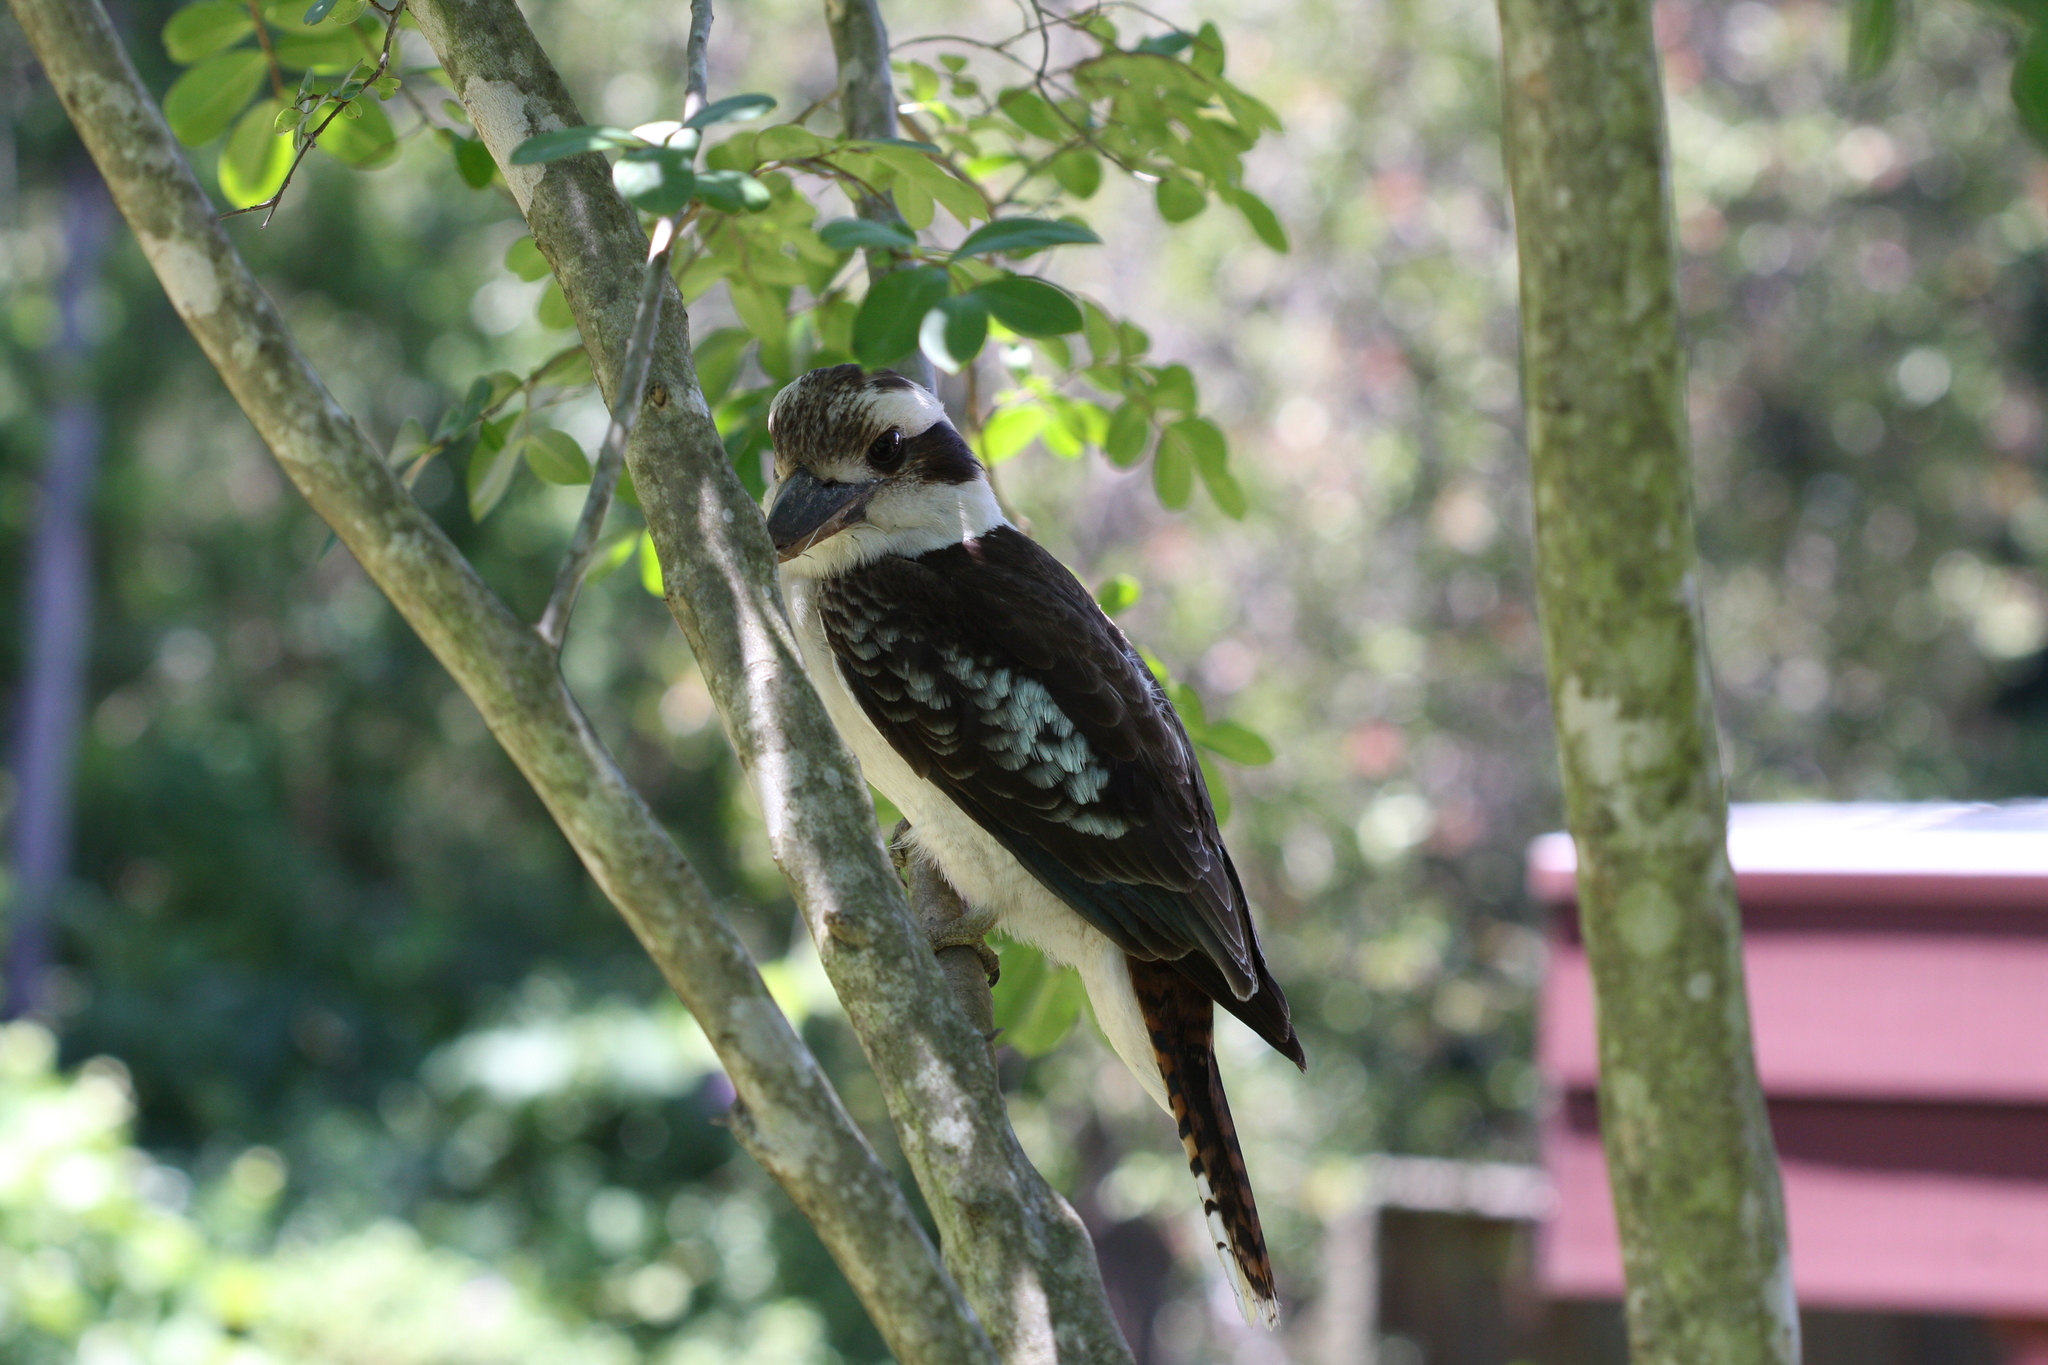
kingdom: Animalia
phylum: Chordata
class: Aves
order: Coraciiformes
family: Alcedinidae
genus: Dacelo
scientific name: Dacelo novaeguineae
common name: Laughing kookaburra
